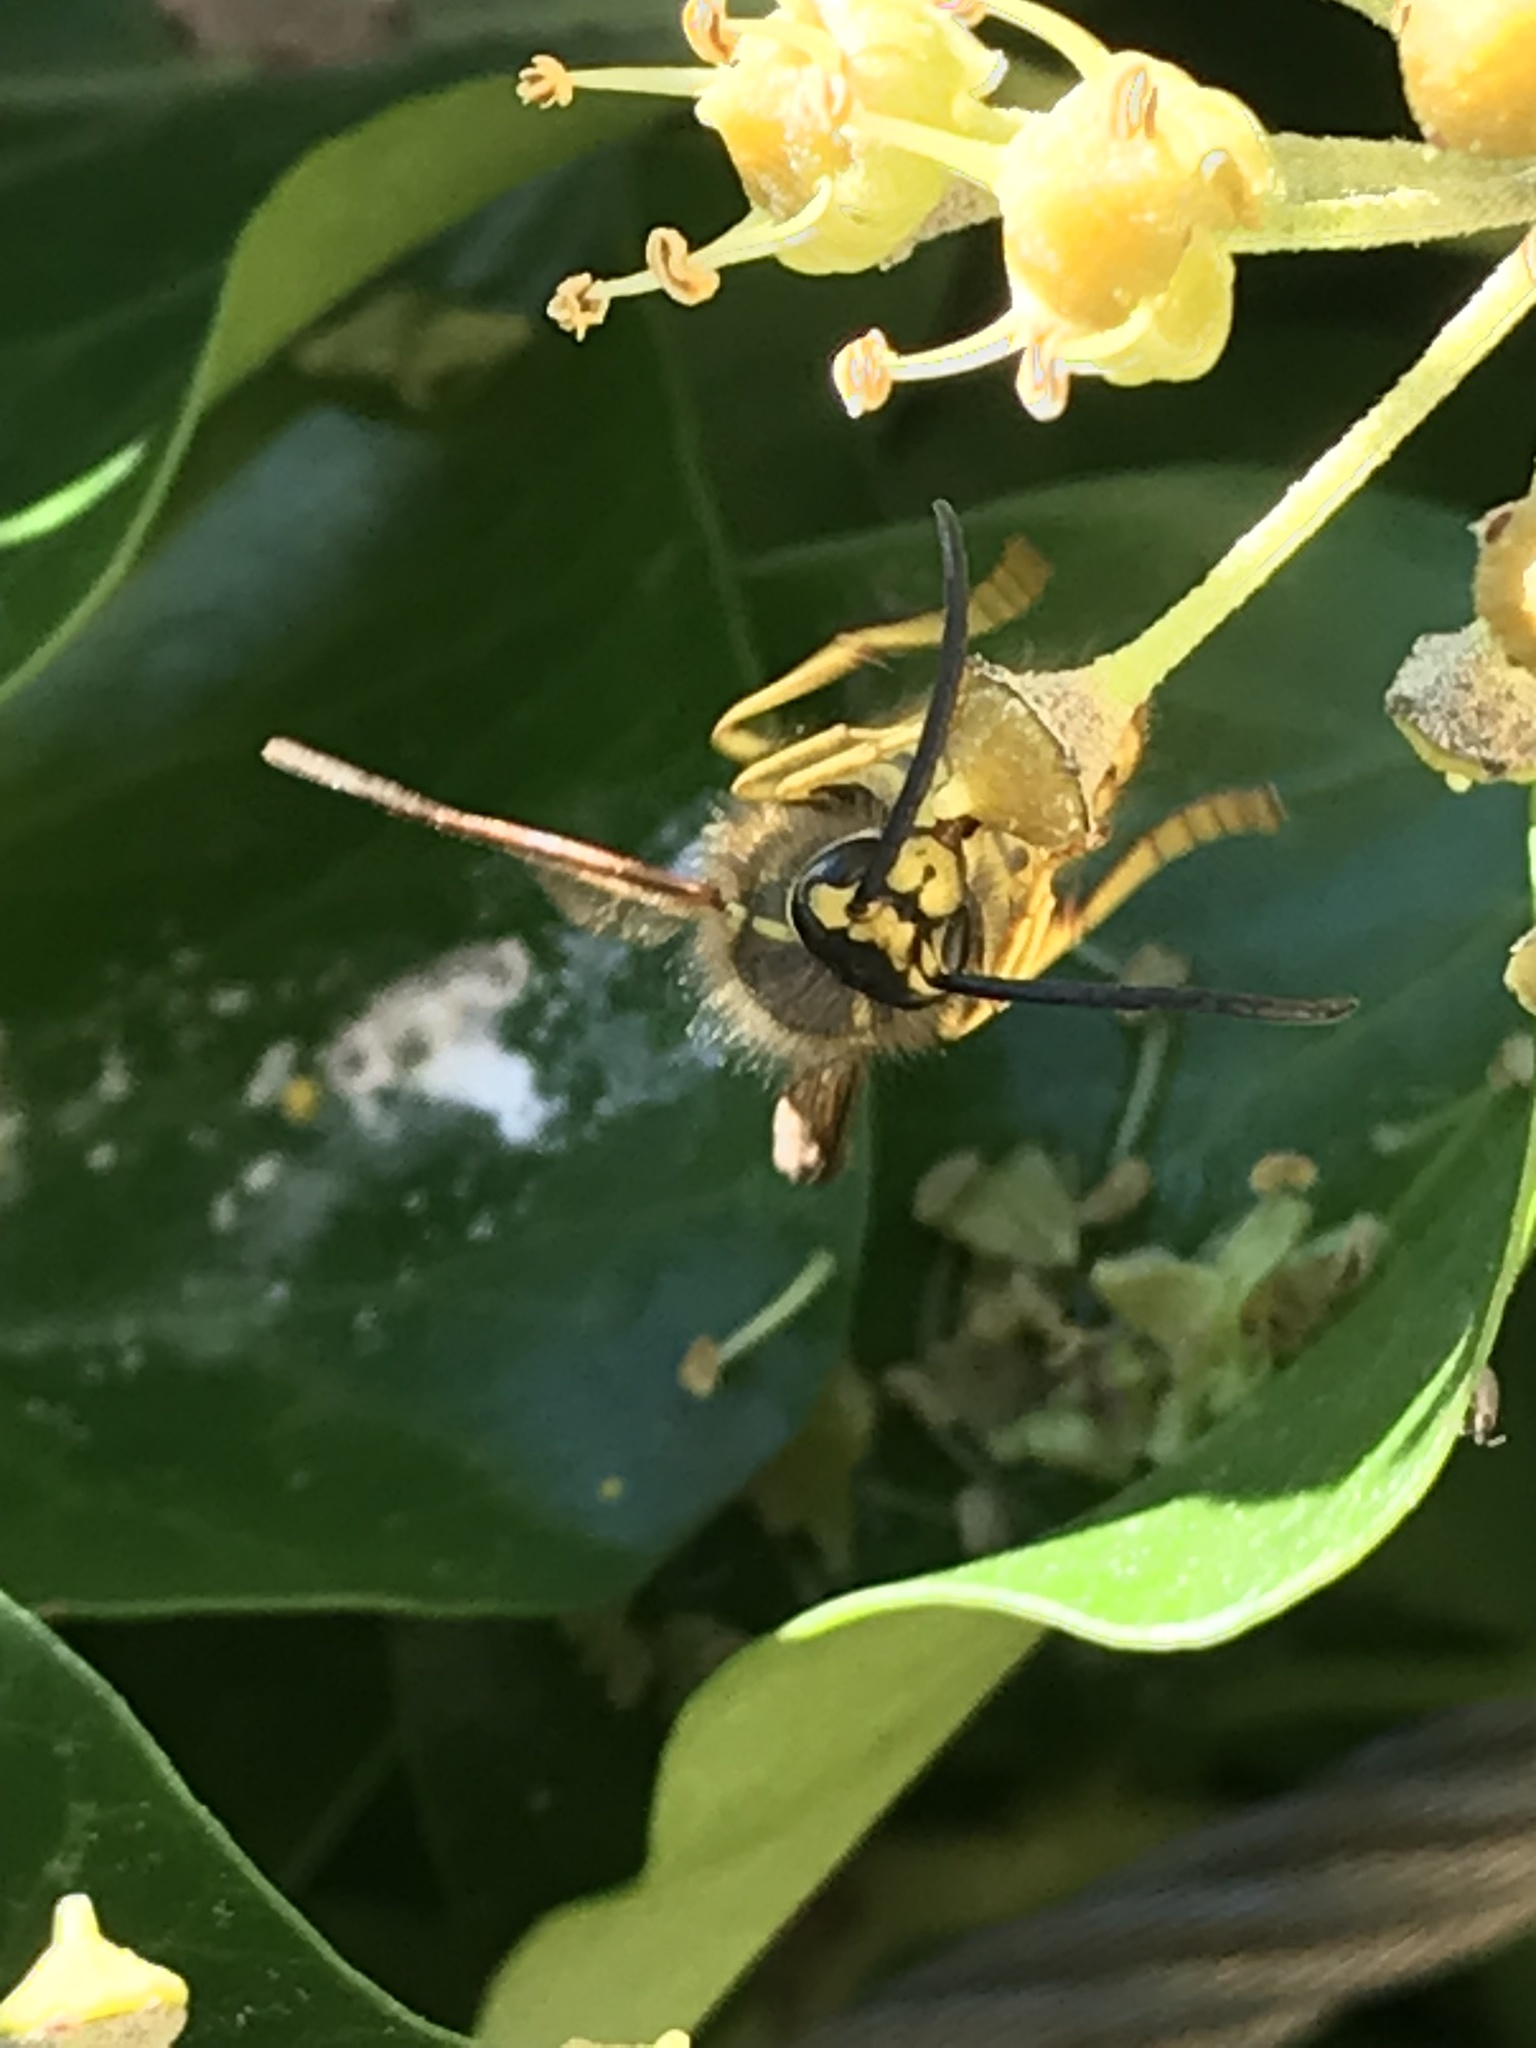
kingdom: Animalia
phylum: Arthropoda
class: Insecta
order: Hymenoptera
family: Vespidae
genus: Vespula
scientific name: Vespula germanica
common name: German wasp
